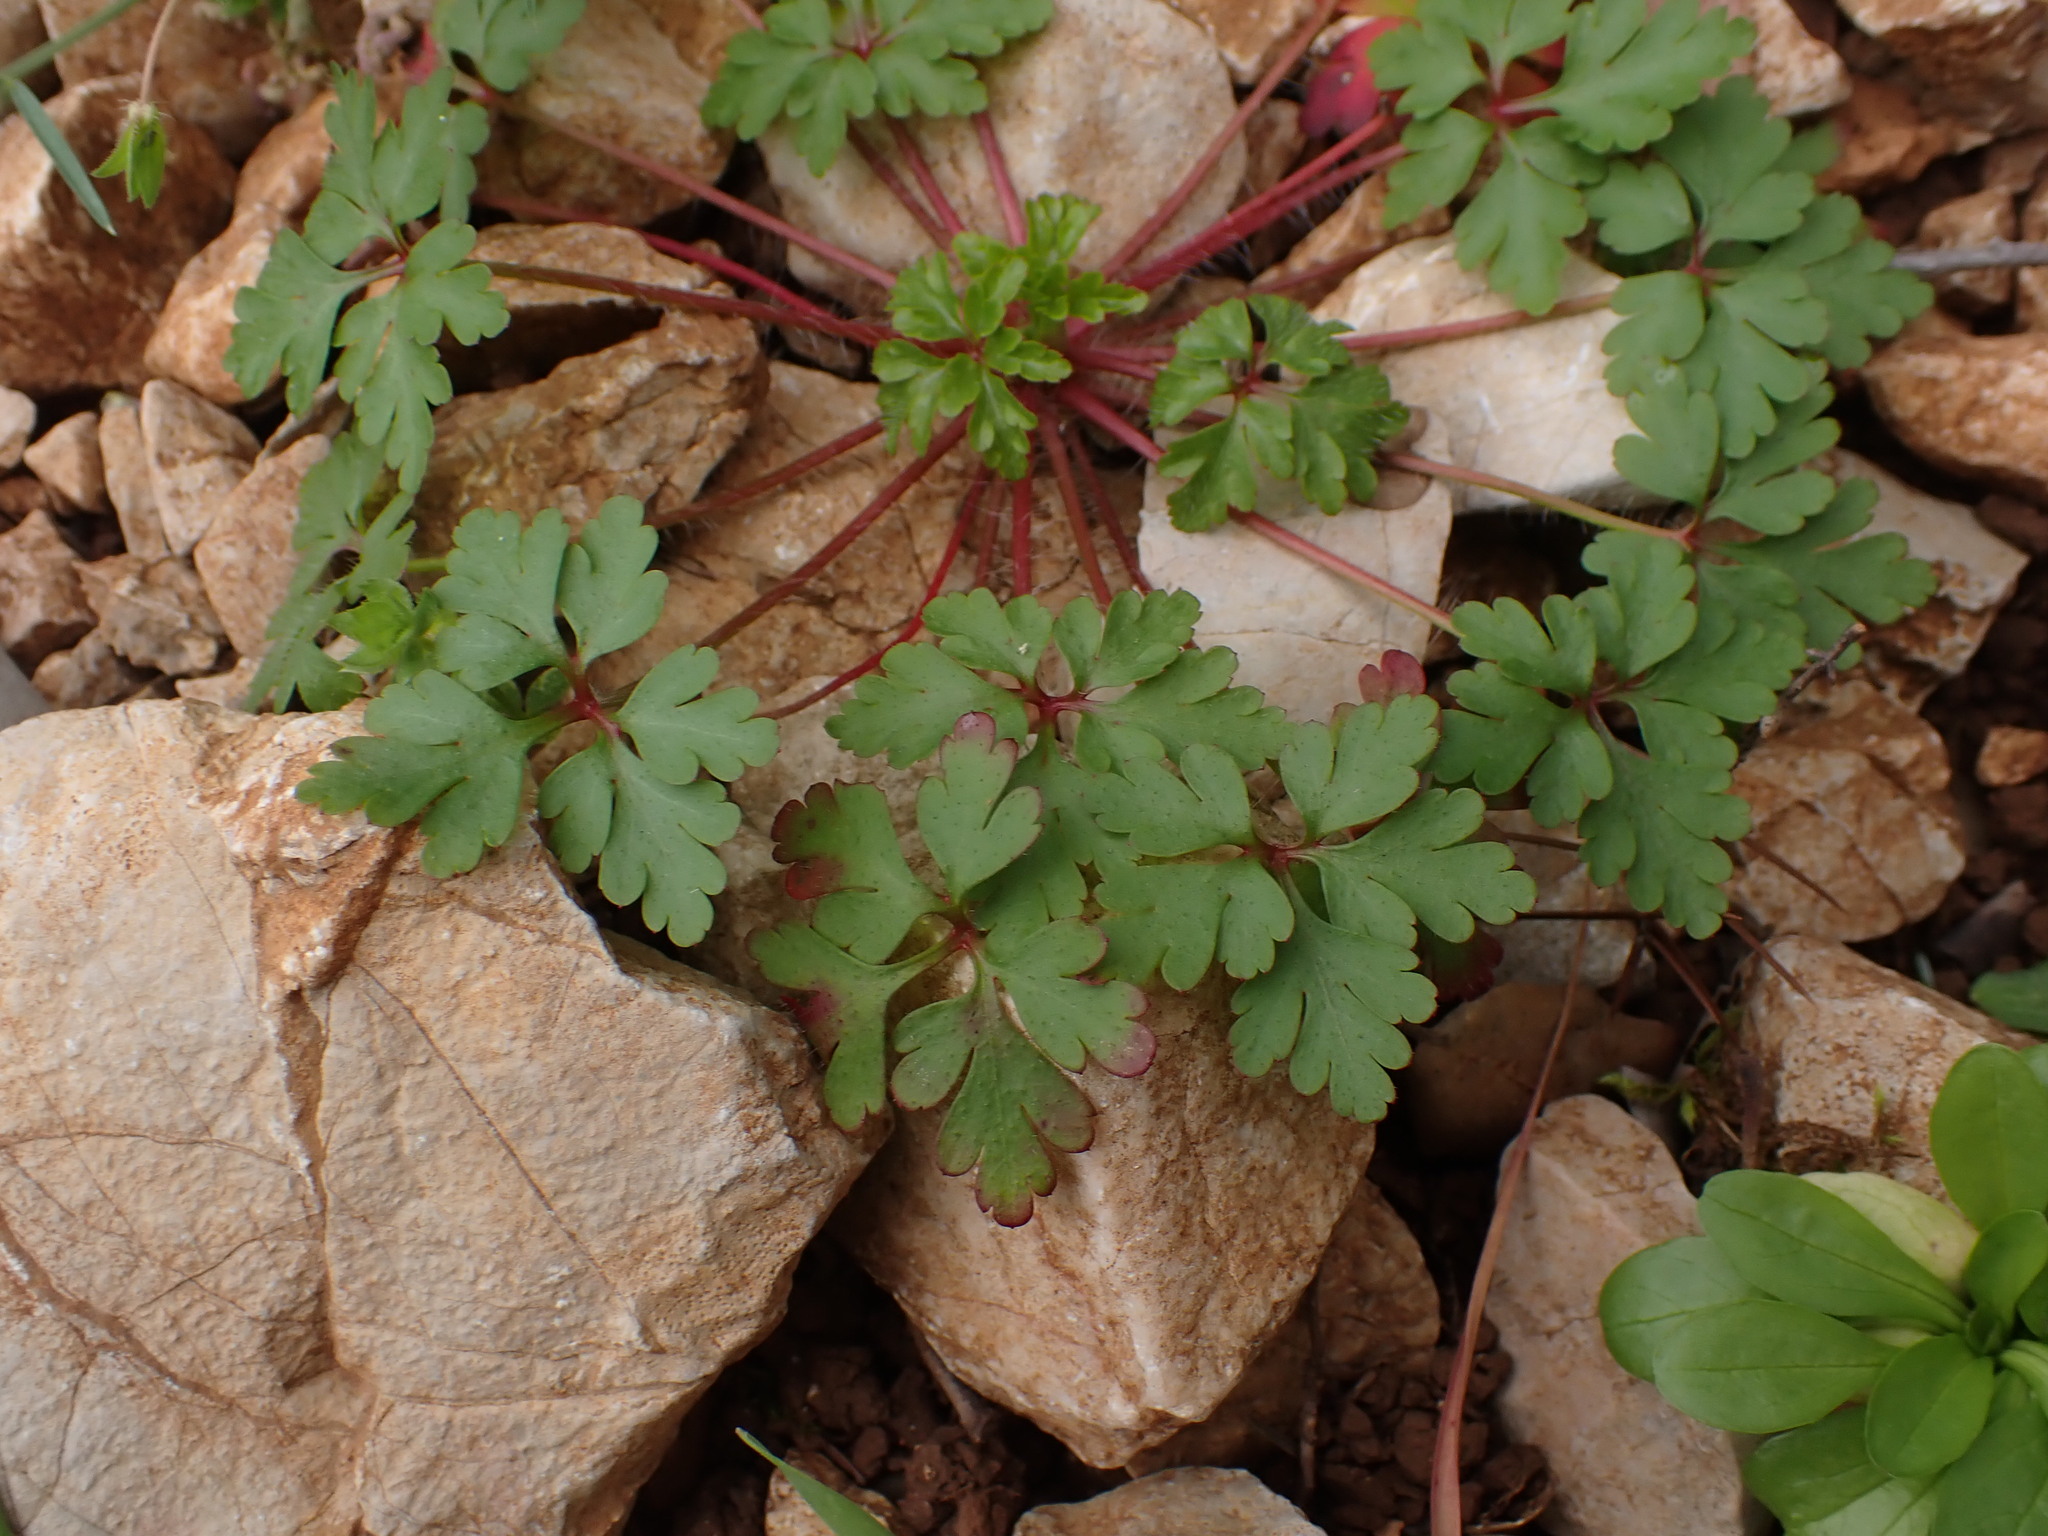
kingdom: Plantae
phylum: Tracheophyta
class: Magnoliopsida
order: Geraniales
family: Geraniaceae
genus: Geranium
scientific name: Geranium purpureum
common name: Little-robin
